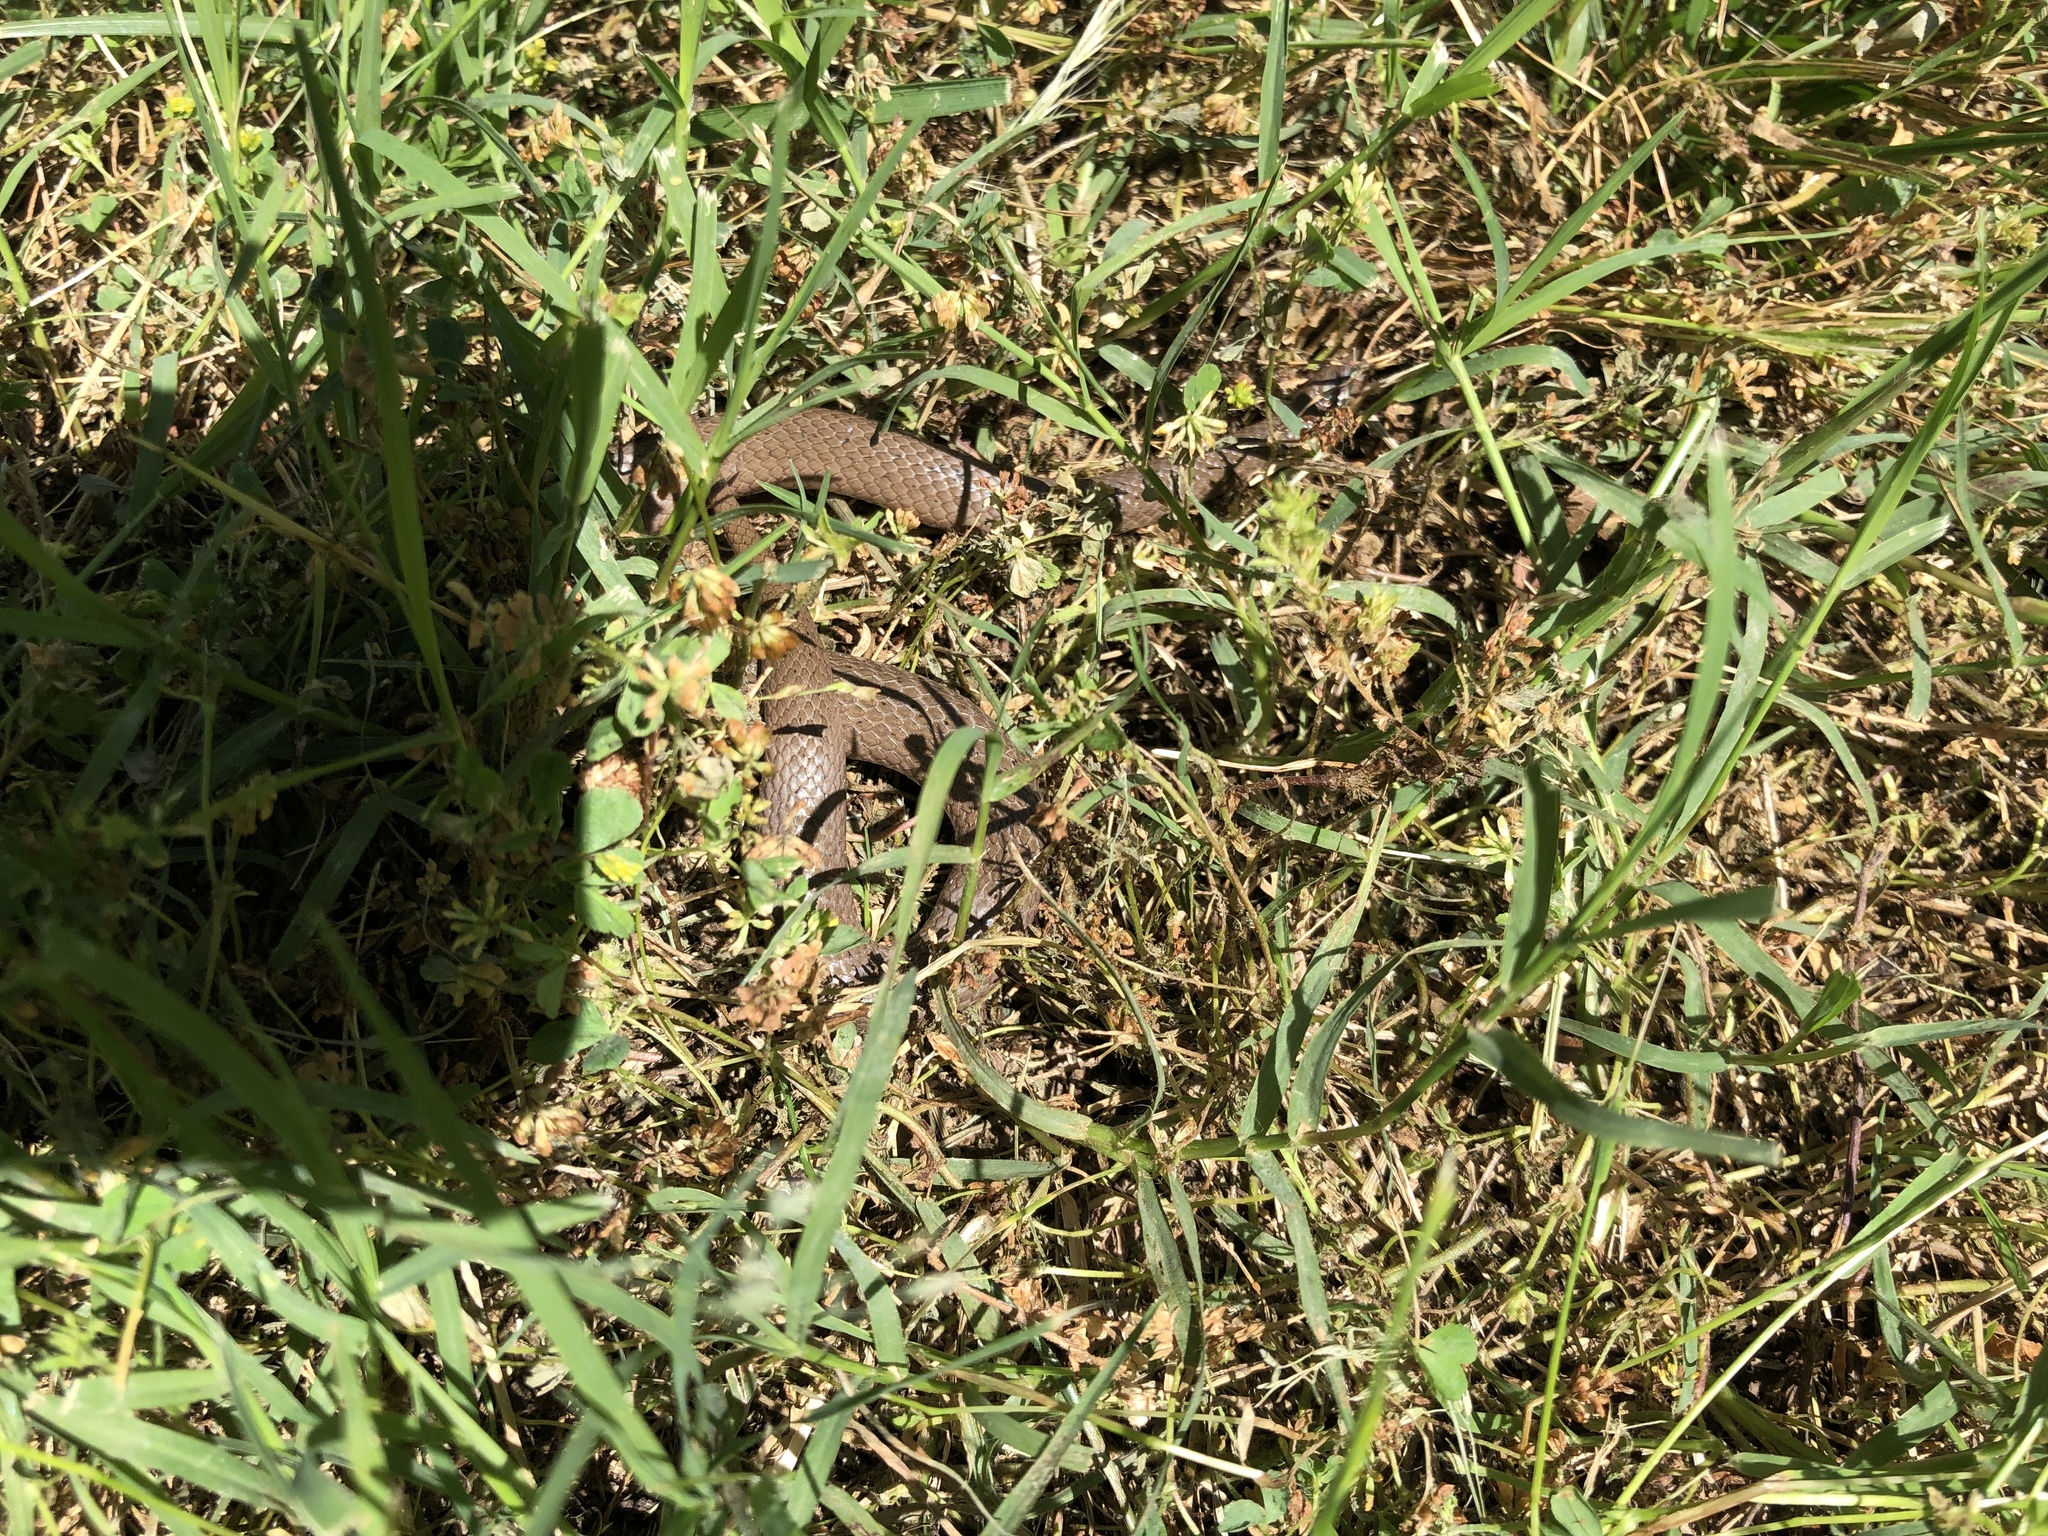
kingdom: Animalia
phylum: Chordata
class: Squamata
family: Colubridae
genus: Virginia
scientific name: Virginia valeriae
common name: Smooth earth snake
